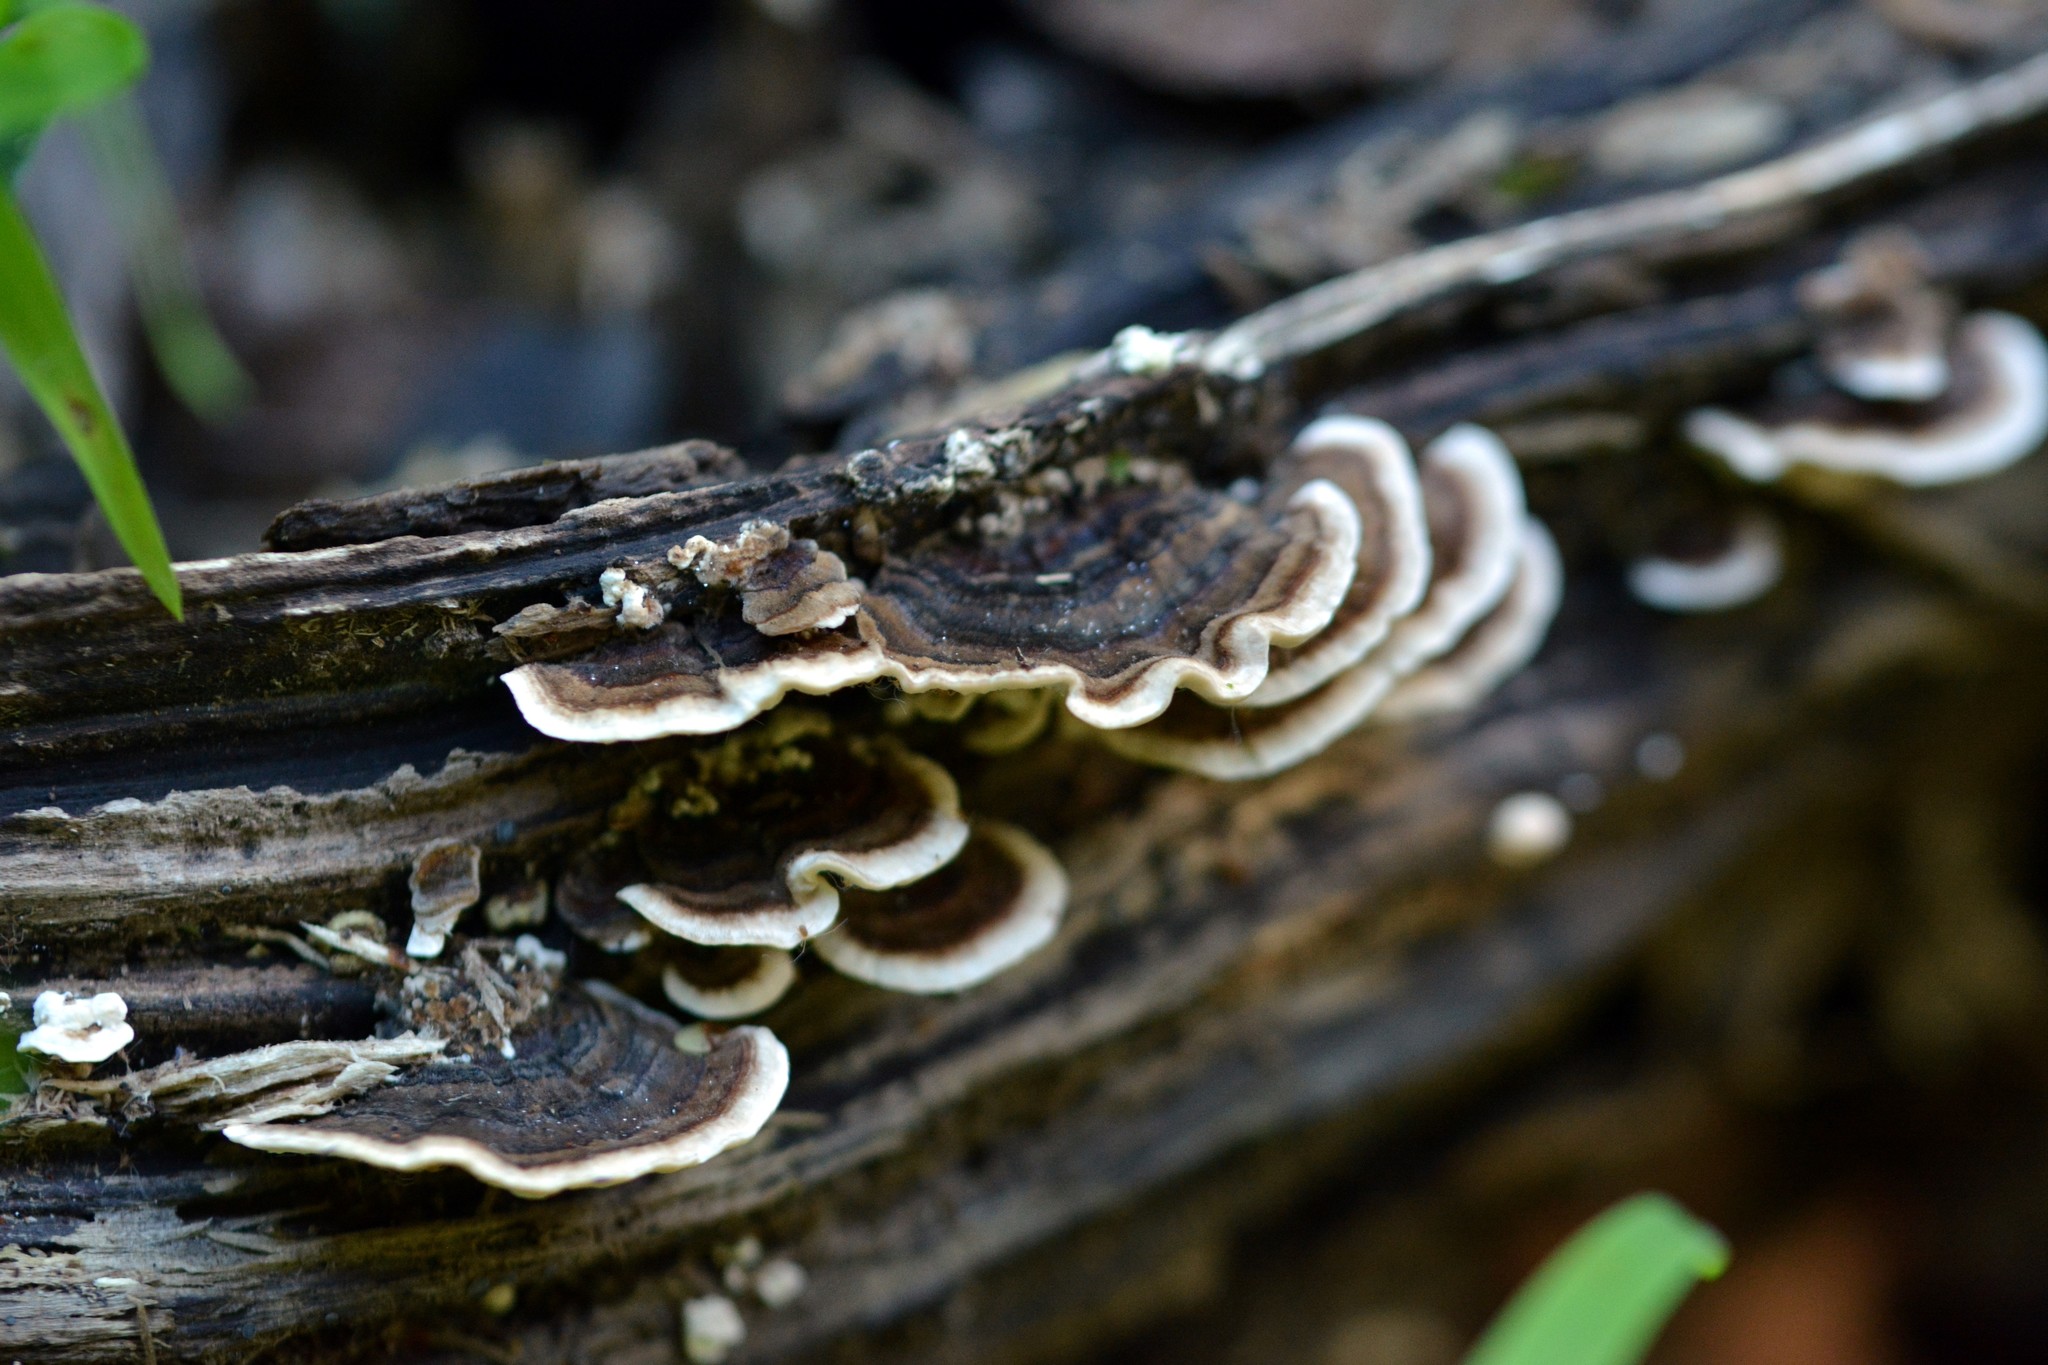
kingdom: Fungi
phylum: Basidiomycota
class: Agaricomycetes
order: Polyporales
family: Polyporaceae
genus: Trametes
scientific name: Trametes versicolor
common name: Turkeytail
